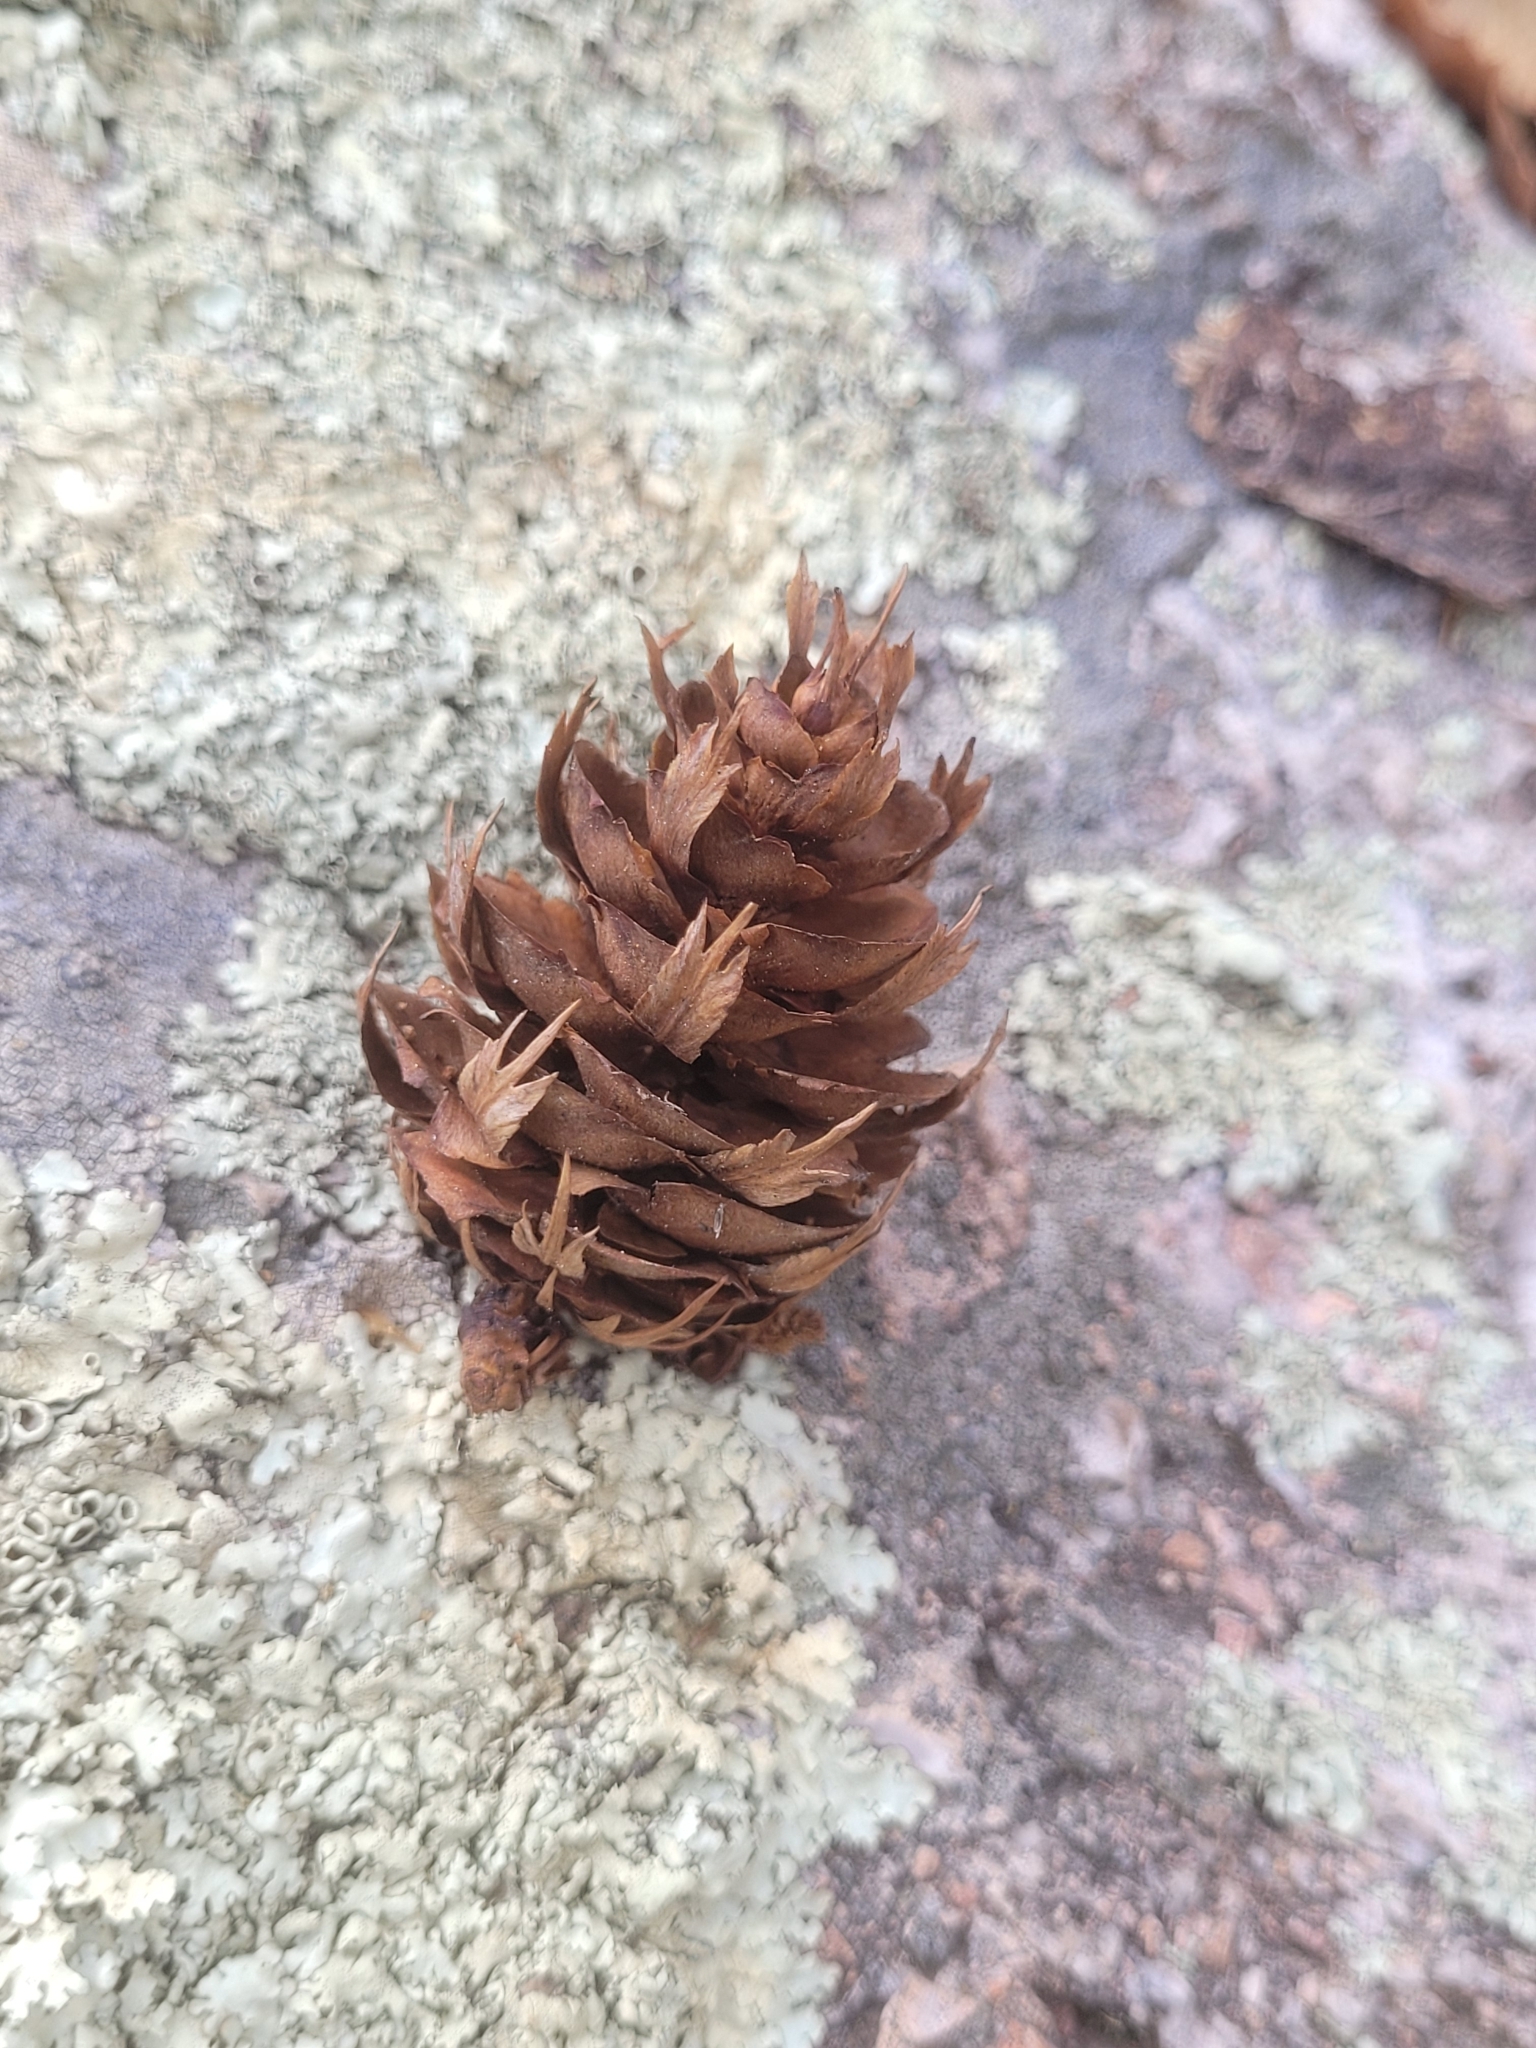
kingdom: Plantae
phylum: Tracheophyta
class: Pinopsida
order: Pinales
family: Pinaceae
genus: Pseudotsuga
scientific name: Pseudotsuga menziesii
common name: Douglas fir
